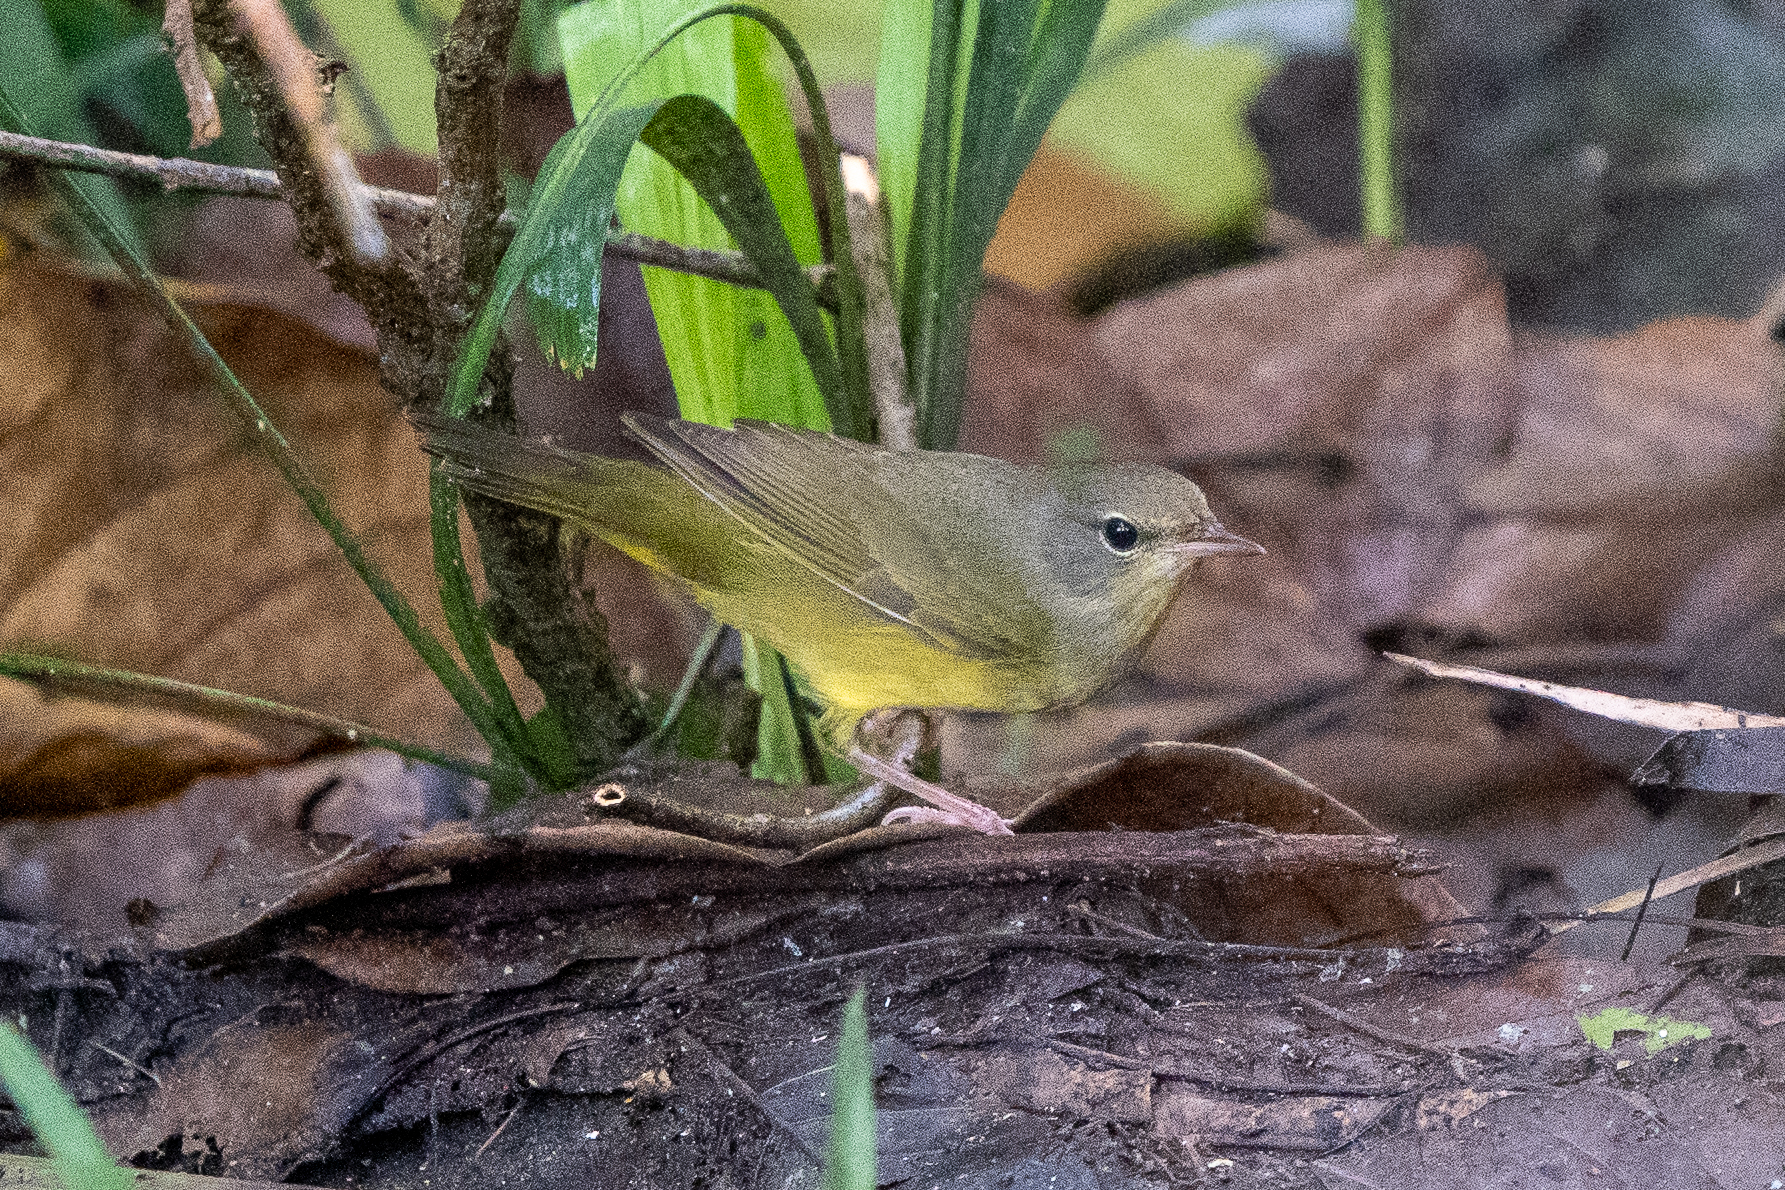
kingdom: Animalia
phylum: Chordata
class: Aves
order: Passeriformes
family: Parulidae
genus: Geothlypis
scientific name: Geothlypis philadelphia
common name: Mourning warbler
